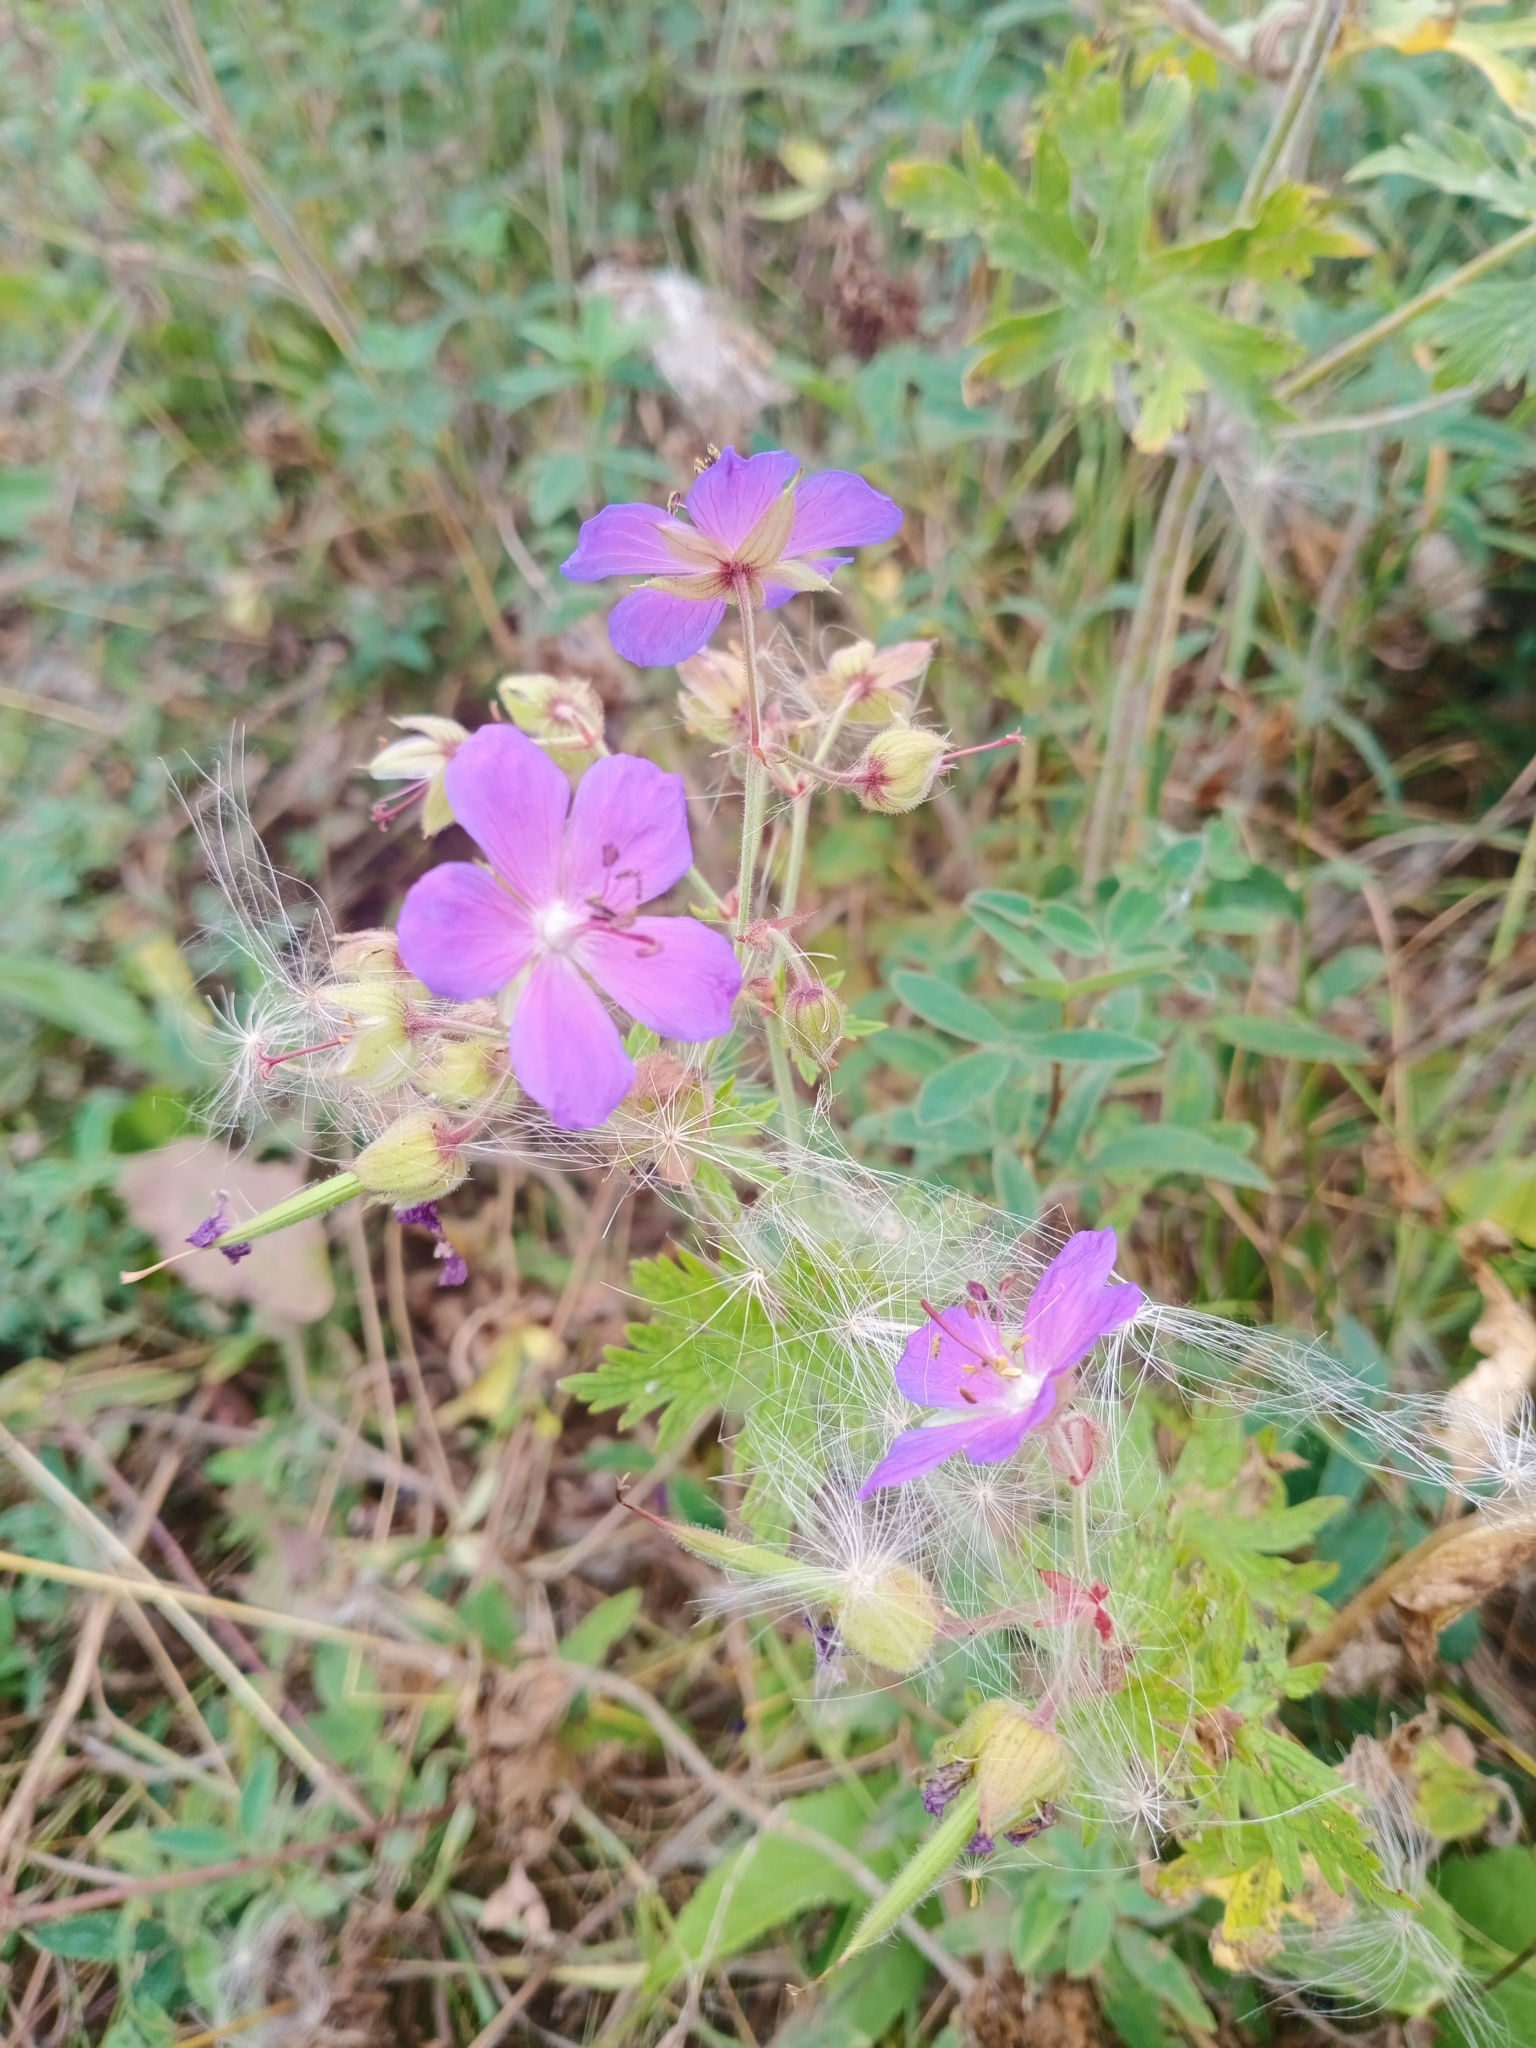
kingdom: Plantae
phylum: Tracheophyta
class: Magnoliopsida
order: Geraniales
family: Geraniaceae
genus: Geranium
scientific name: Geranium pratense
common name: Meadow crane's-bill
